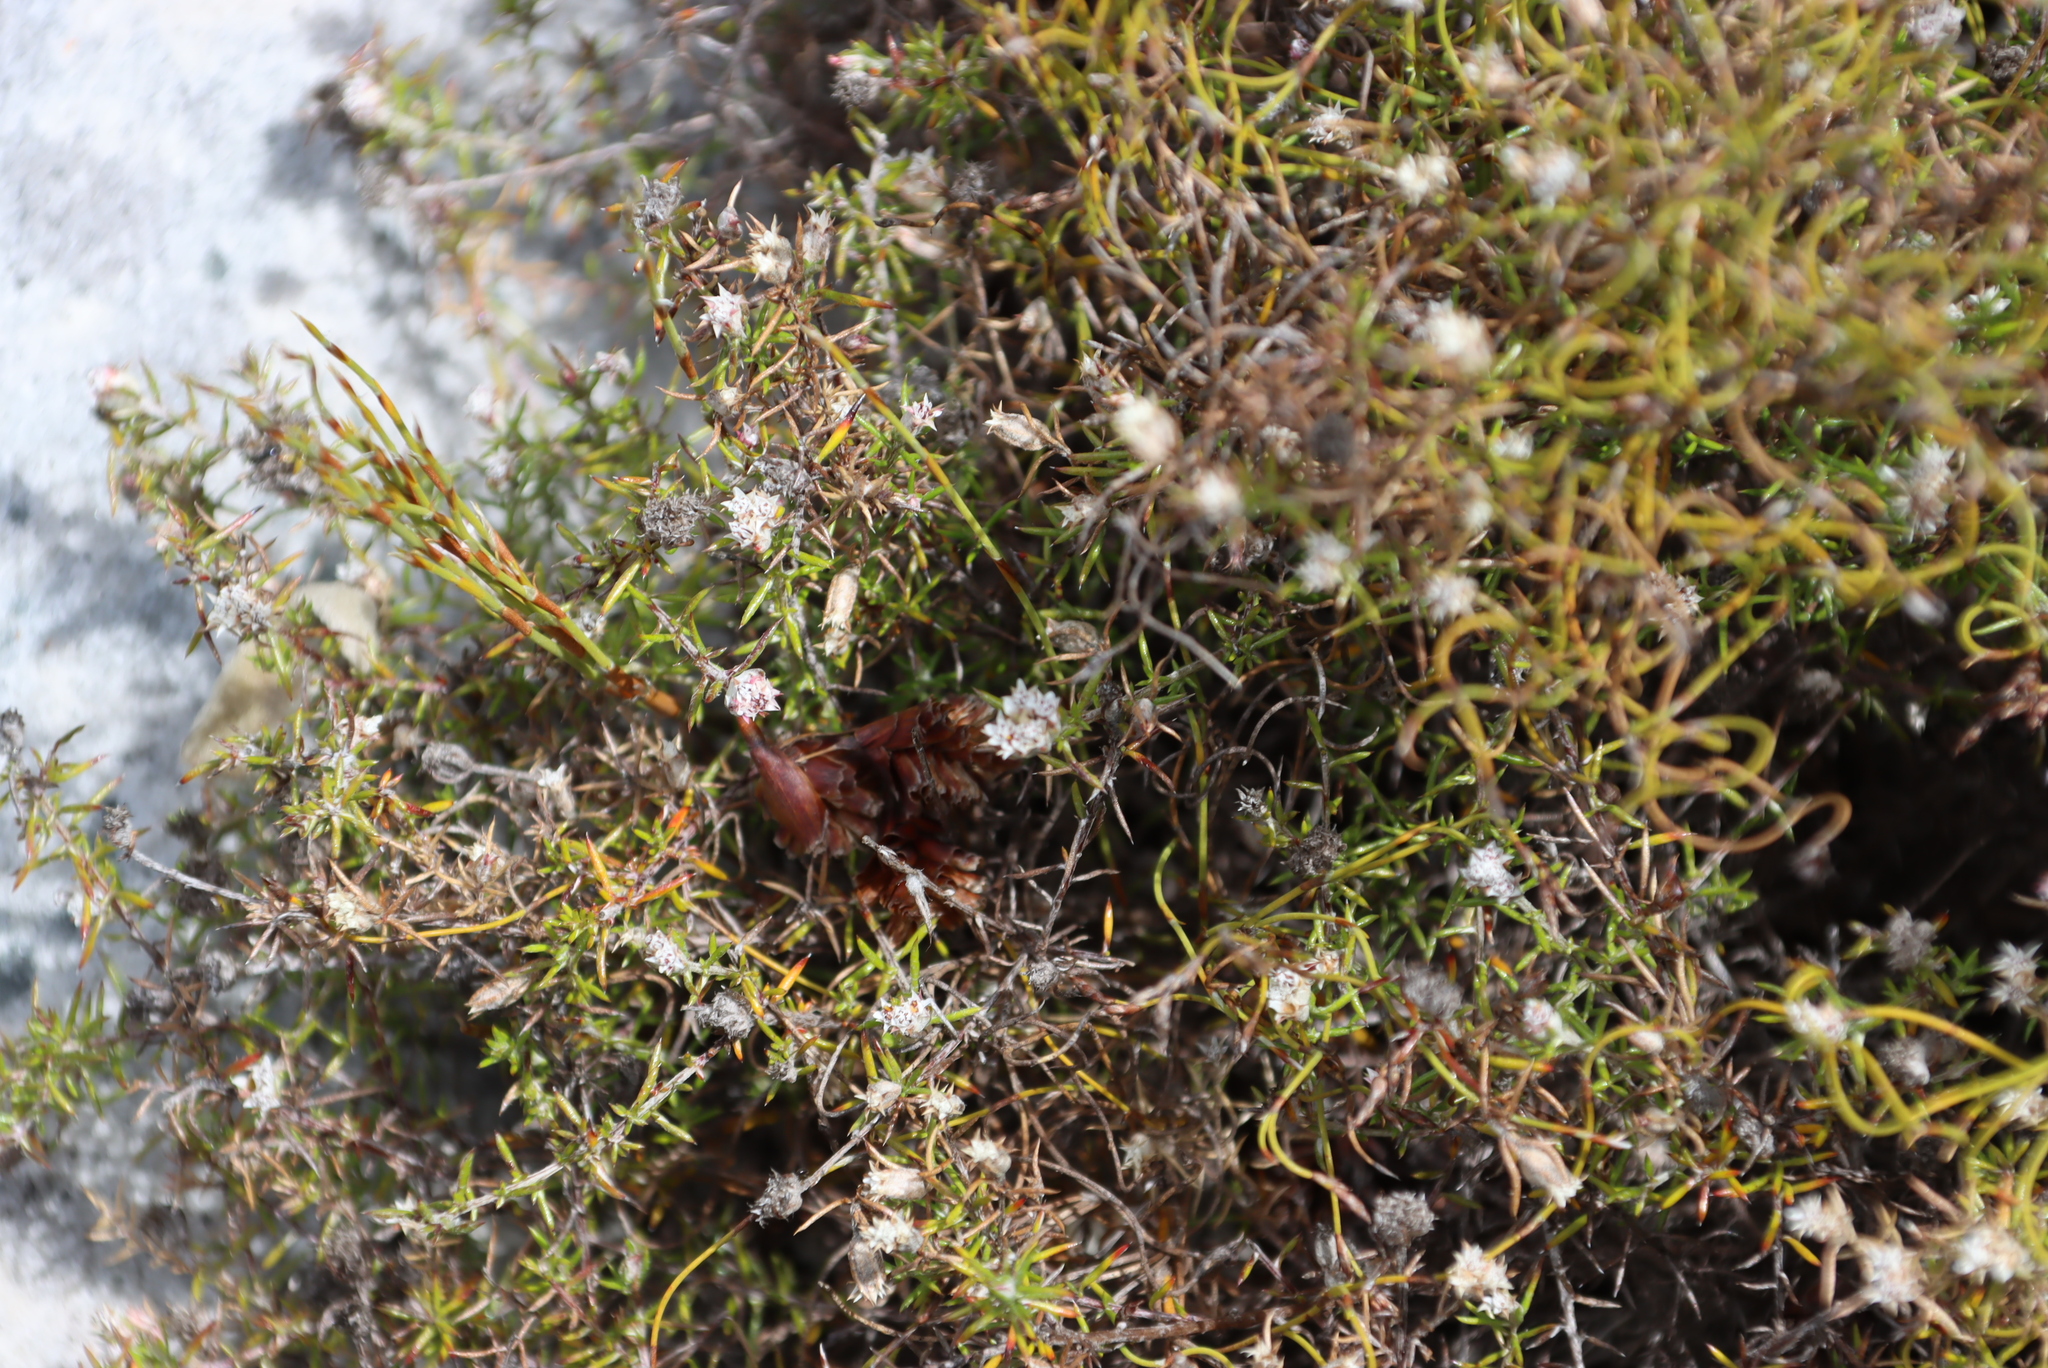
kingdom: Plantae
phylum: Tracheophyta
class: Magnoliopsida
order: Asterales
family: Asteraceae
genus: Metalasia
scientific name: Metalasia divergens
